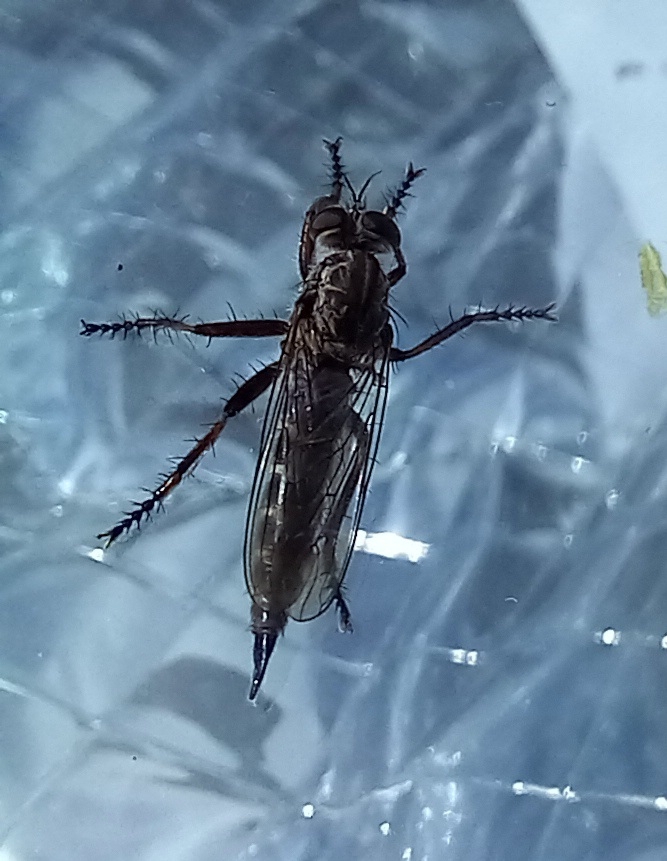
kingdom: Animalia
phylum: Arthropoda
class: Insecta
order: Diptera
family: Asilidae
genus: Machimus
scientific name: Machimus atricapillus
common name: Kite-tailed robberfly
